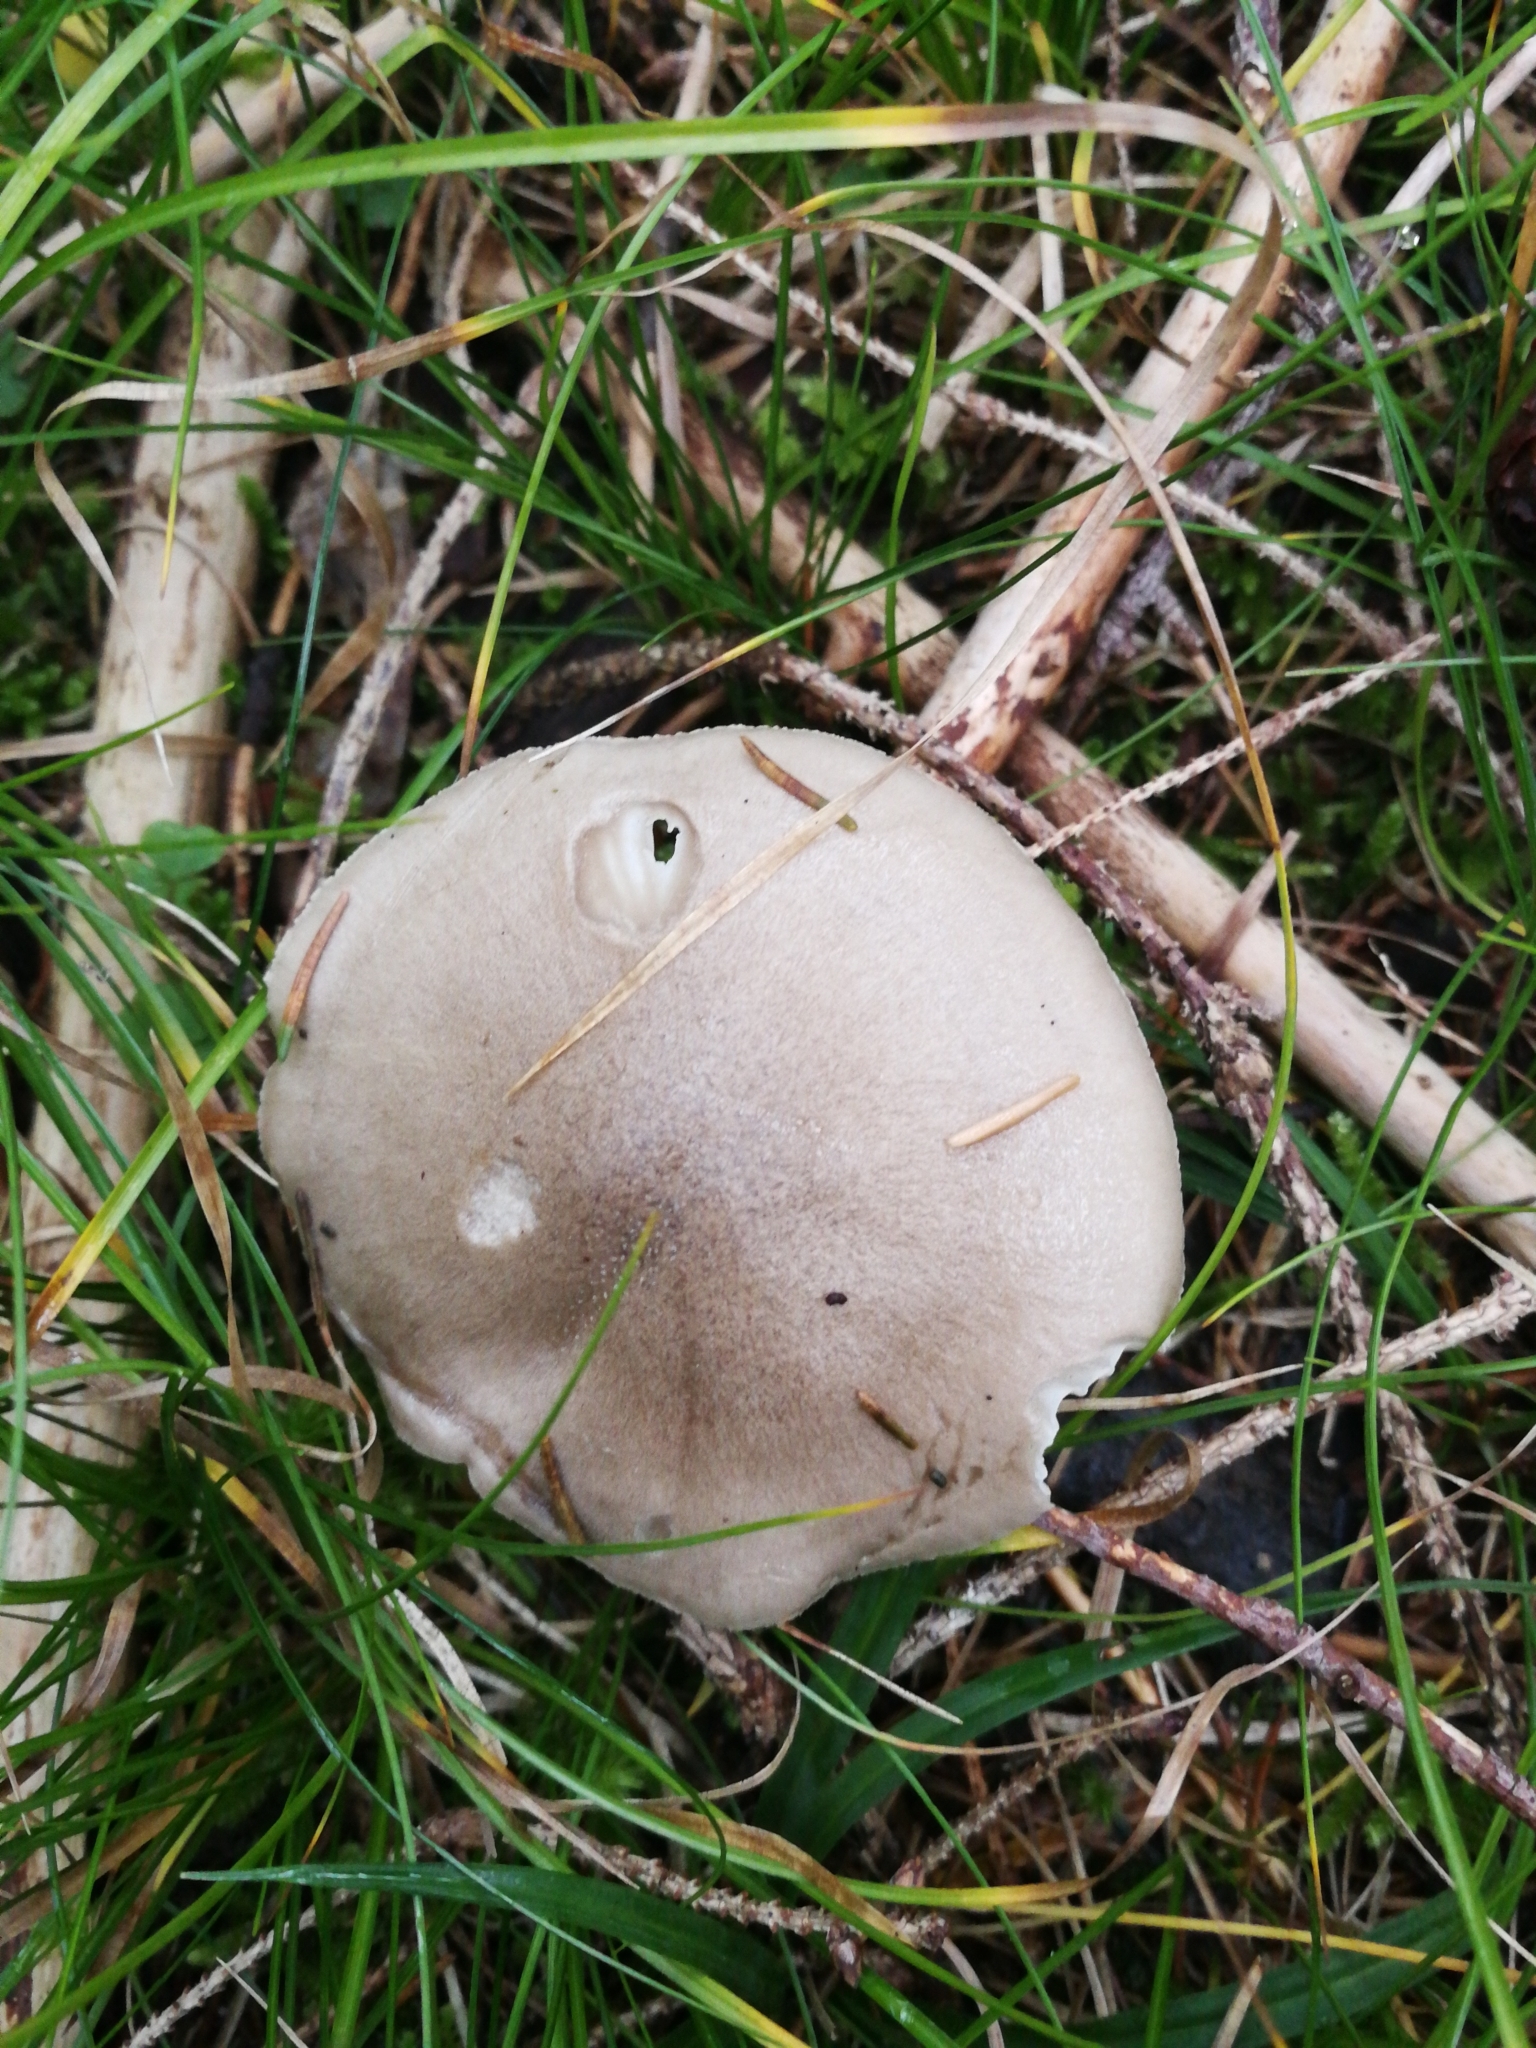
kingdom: Fungi
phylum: Basidiomycota
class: Agaricomycetes
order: Agaricales
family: Hygrophoraceae
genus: Hygrophorus
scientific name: Hygrophorus agathosmus
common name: Almond woodwax
